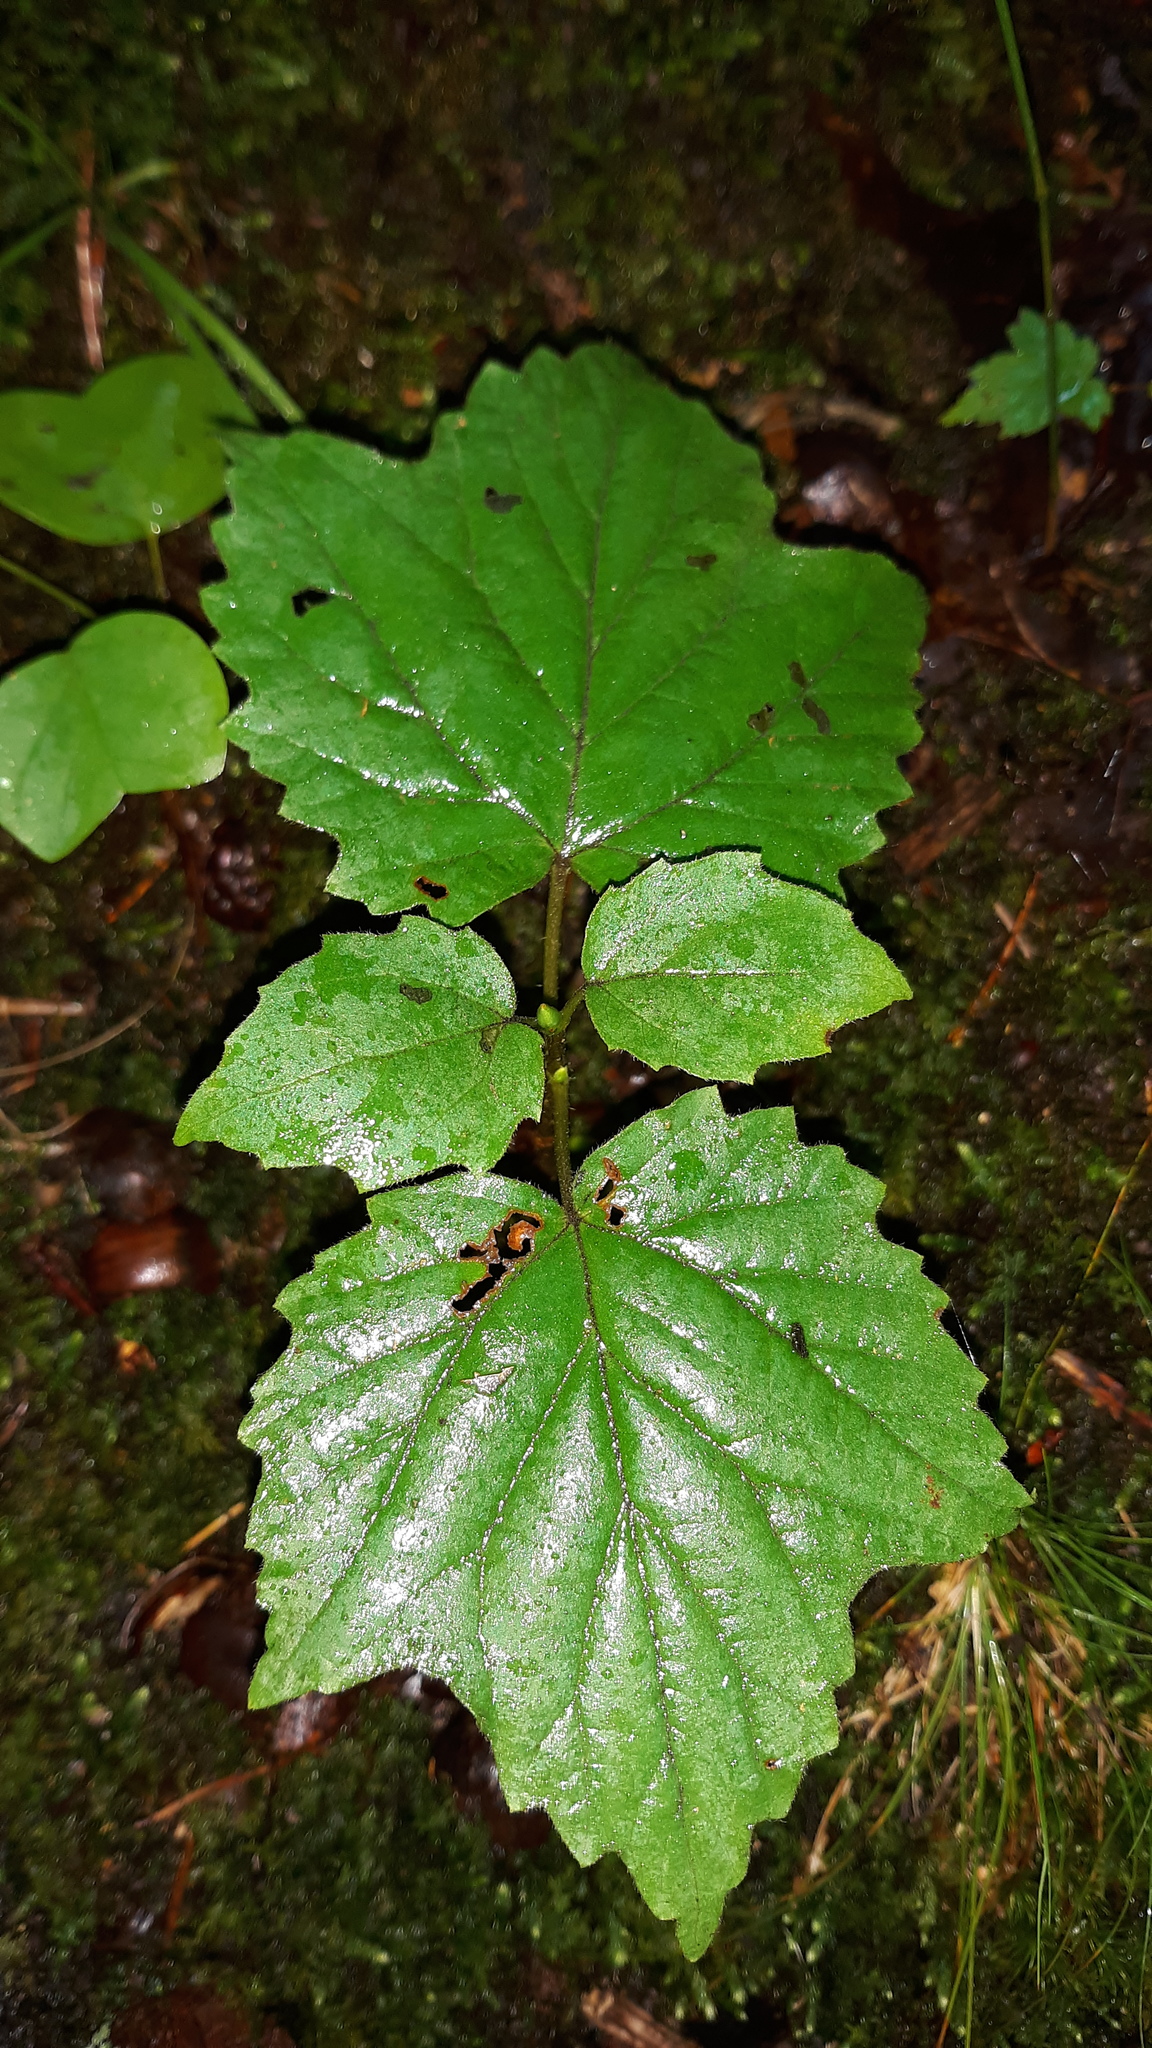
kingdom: Plantae
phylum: Tracheophyta
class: Magnoliopsida
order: Dipsacales
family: Viburnaceae
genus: Viburnum
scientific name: Viburnum acerifolium
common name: Dockmackie
